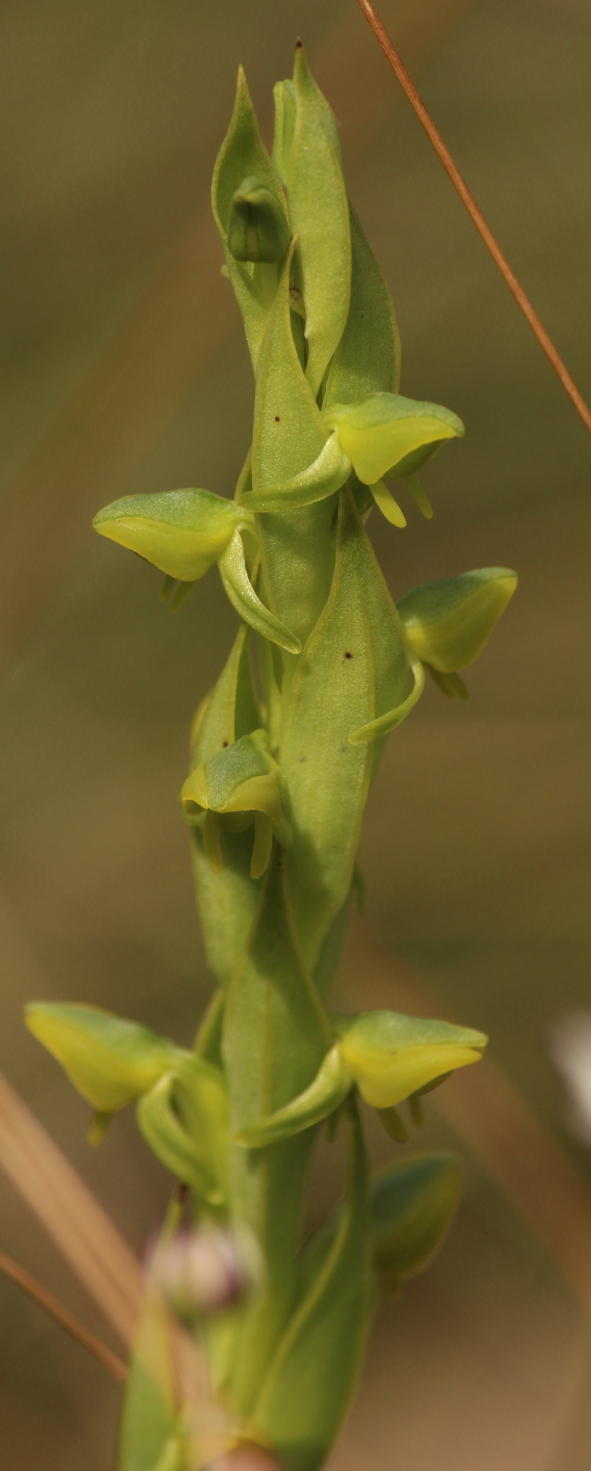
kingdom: Plantae
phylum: Tracheophyta
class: Liliopsida
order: Asparagales
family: Orchidaceae
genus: Habenaria
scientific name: Habenaria laevigata
